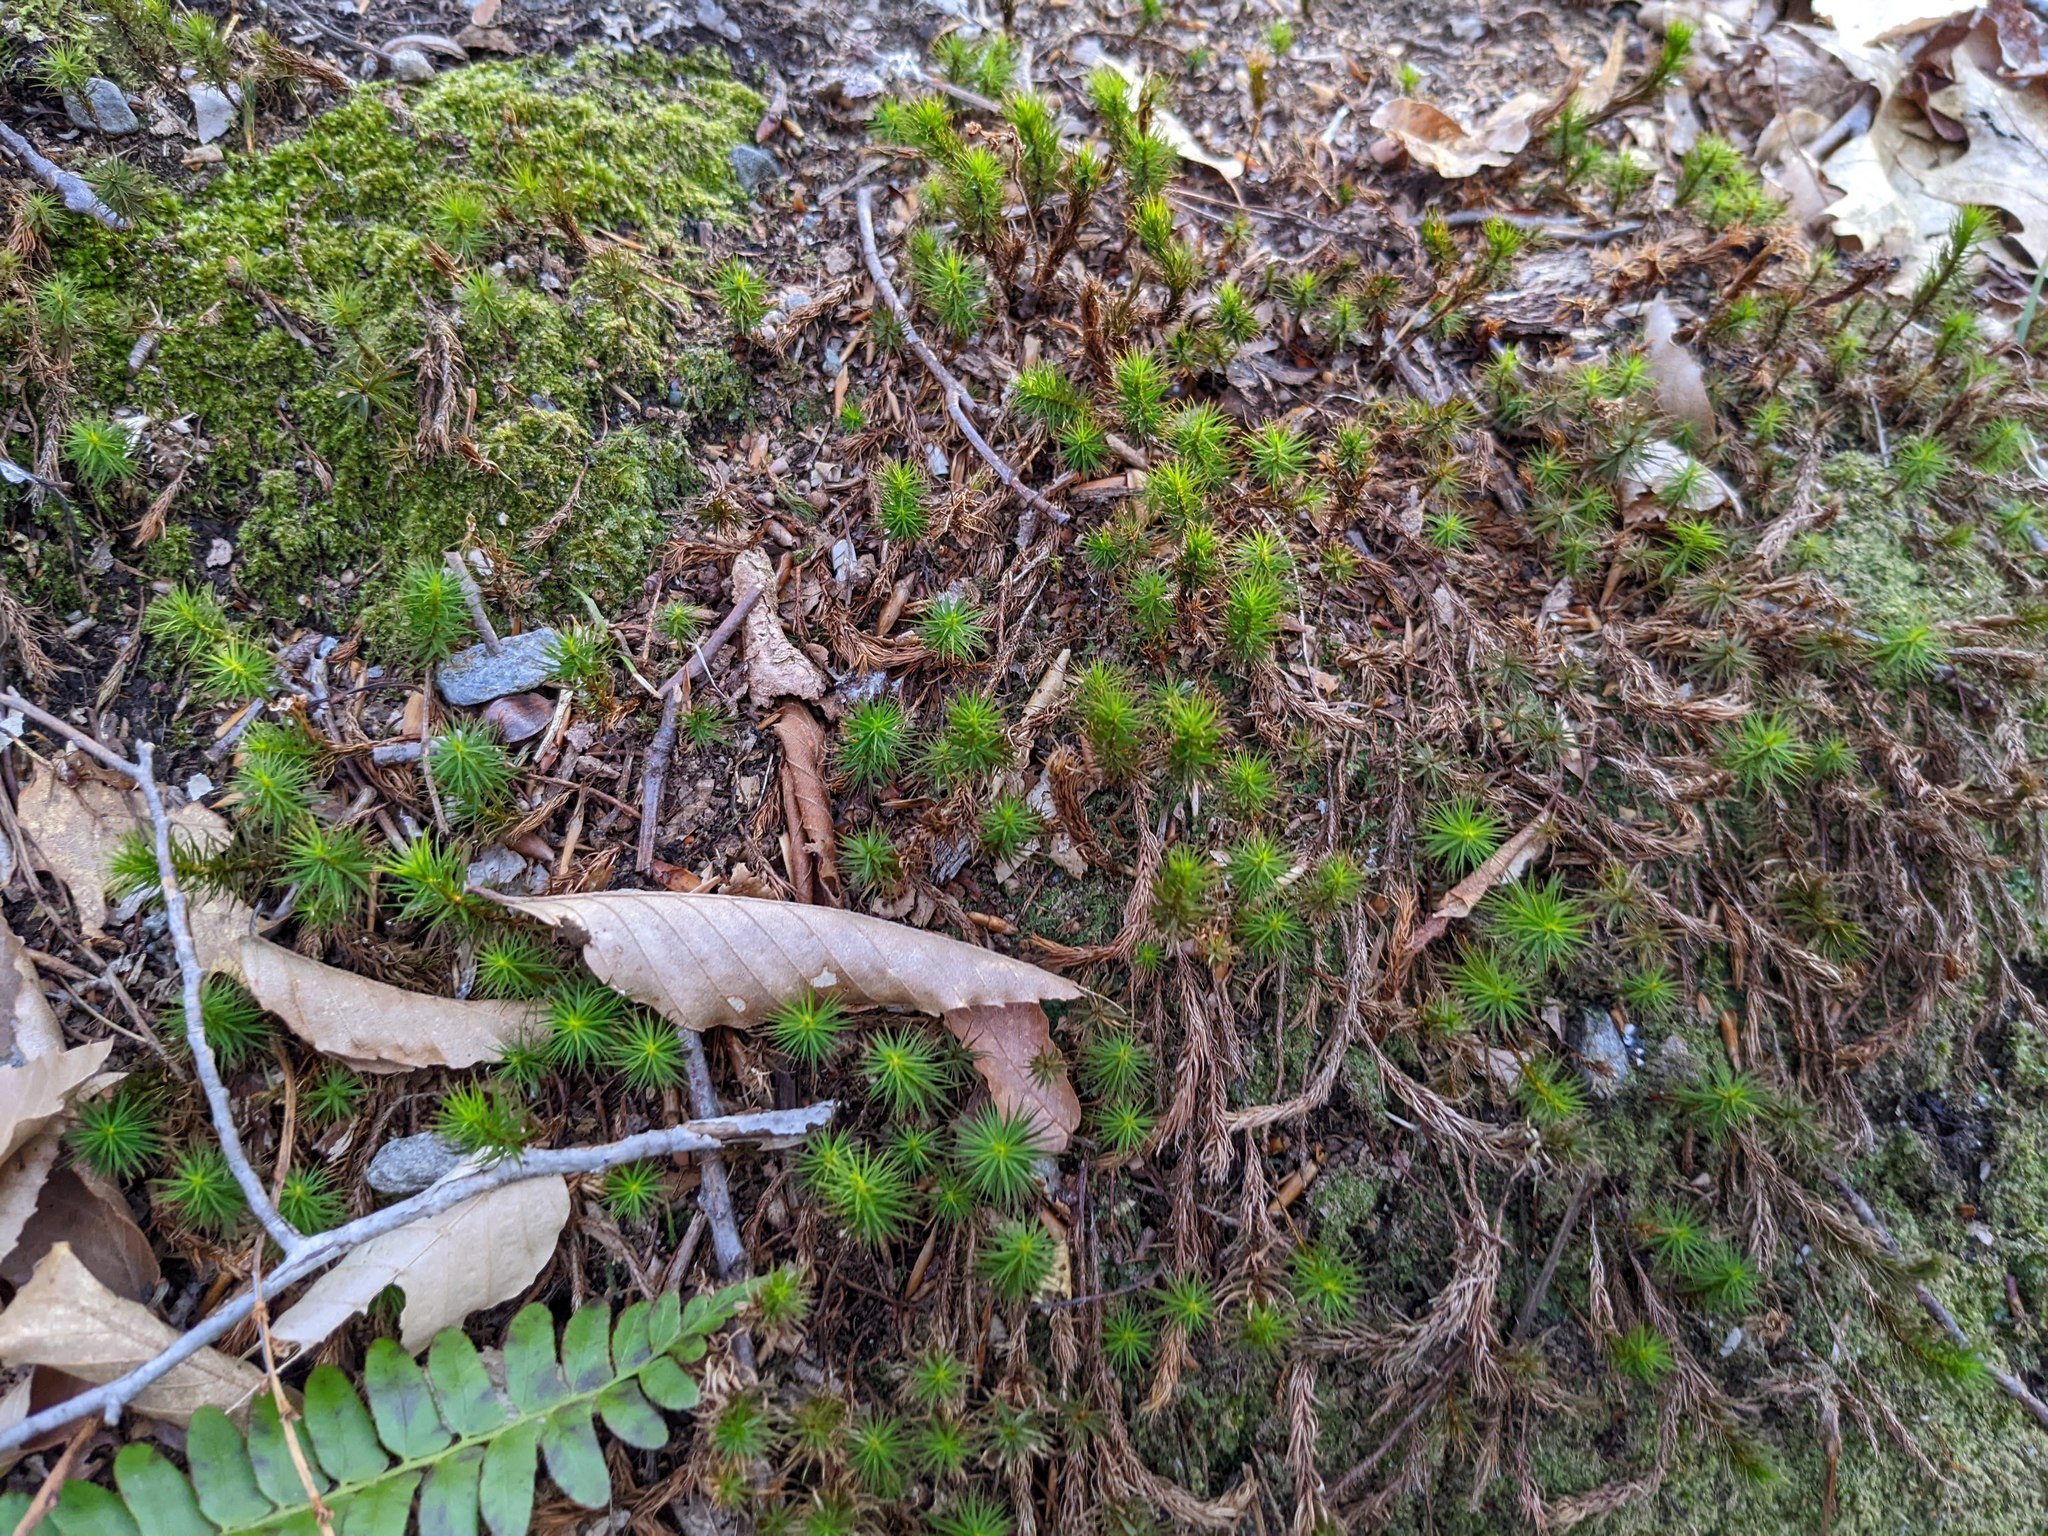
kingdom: Plantae
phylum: Tracheophyta
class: Magnoliopsida
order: Fagales
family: Fagaceae
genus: Fagus
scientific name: Fagus grandifolia
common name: American beech
